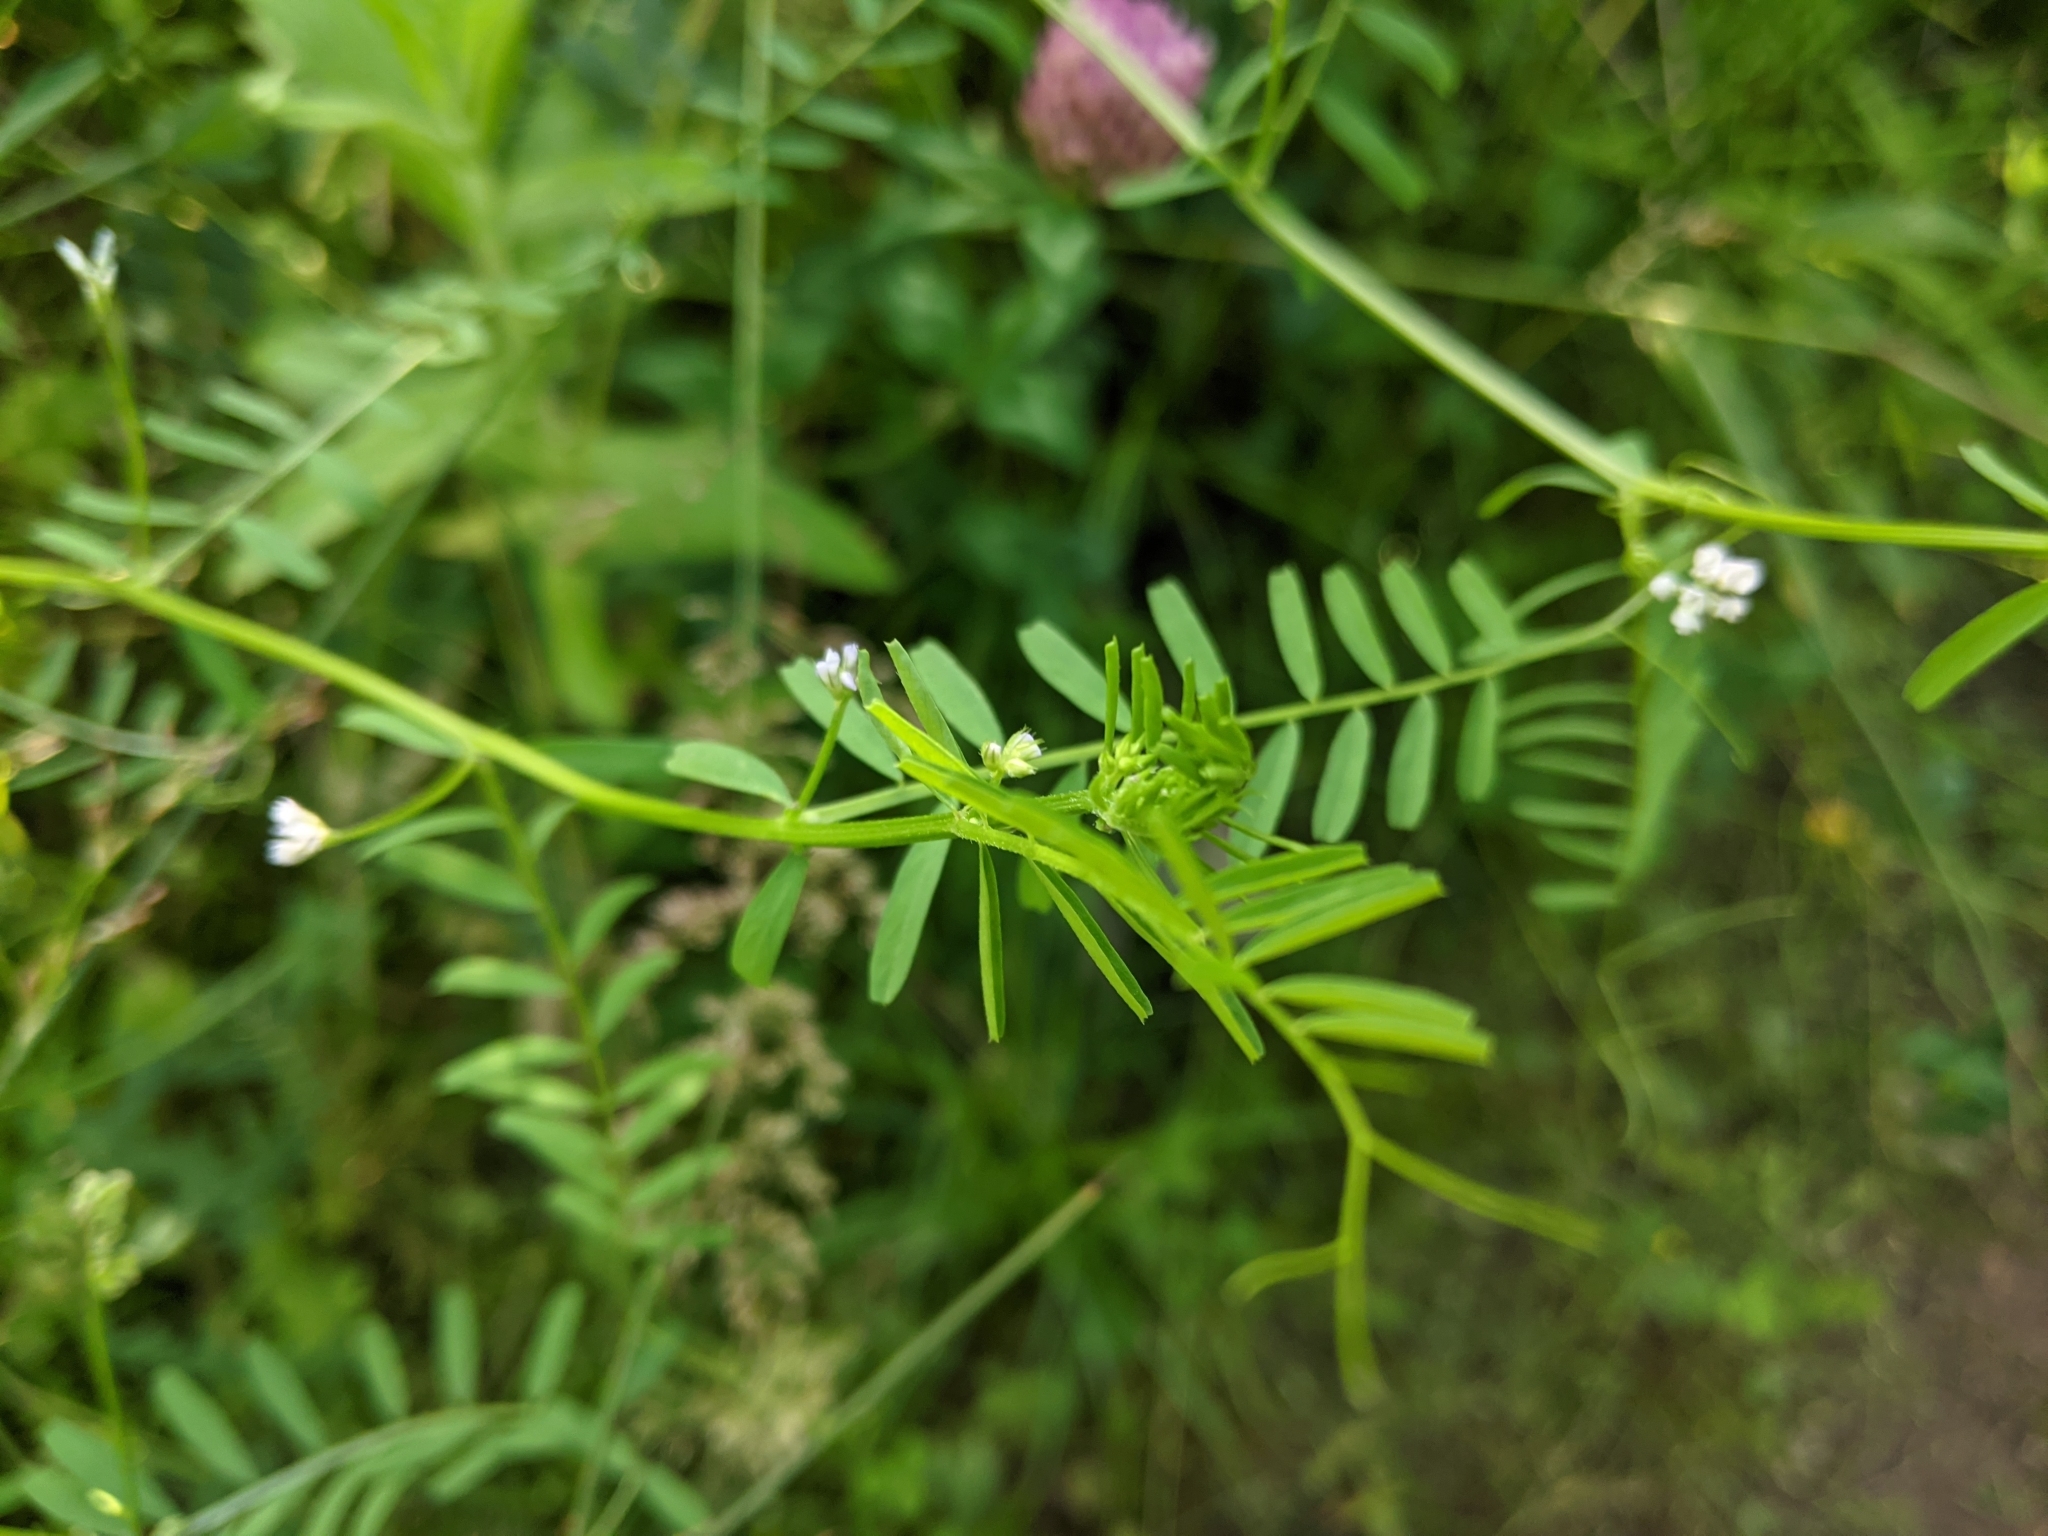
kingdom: Plantae
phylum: Tracheophyta
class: Magnoliopsida
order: Fabales
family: Fabaceae
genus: Vicia
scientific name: Vicia hirsuta
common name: Tiny vetch
